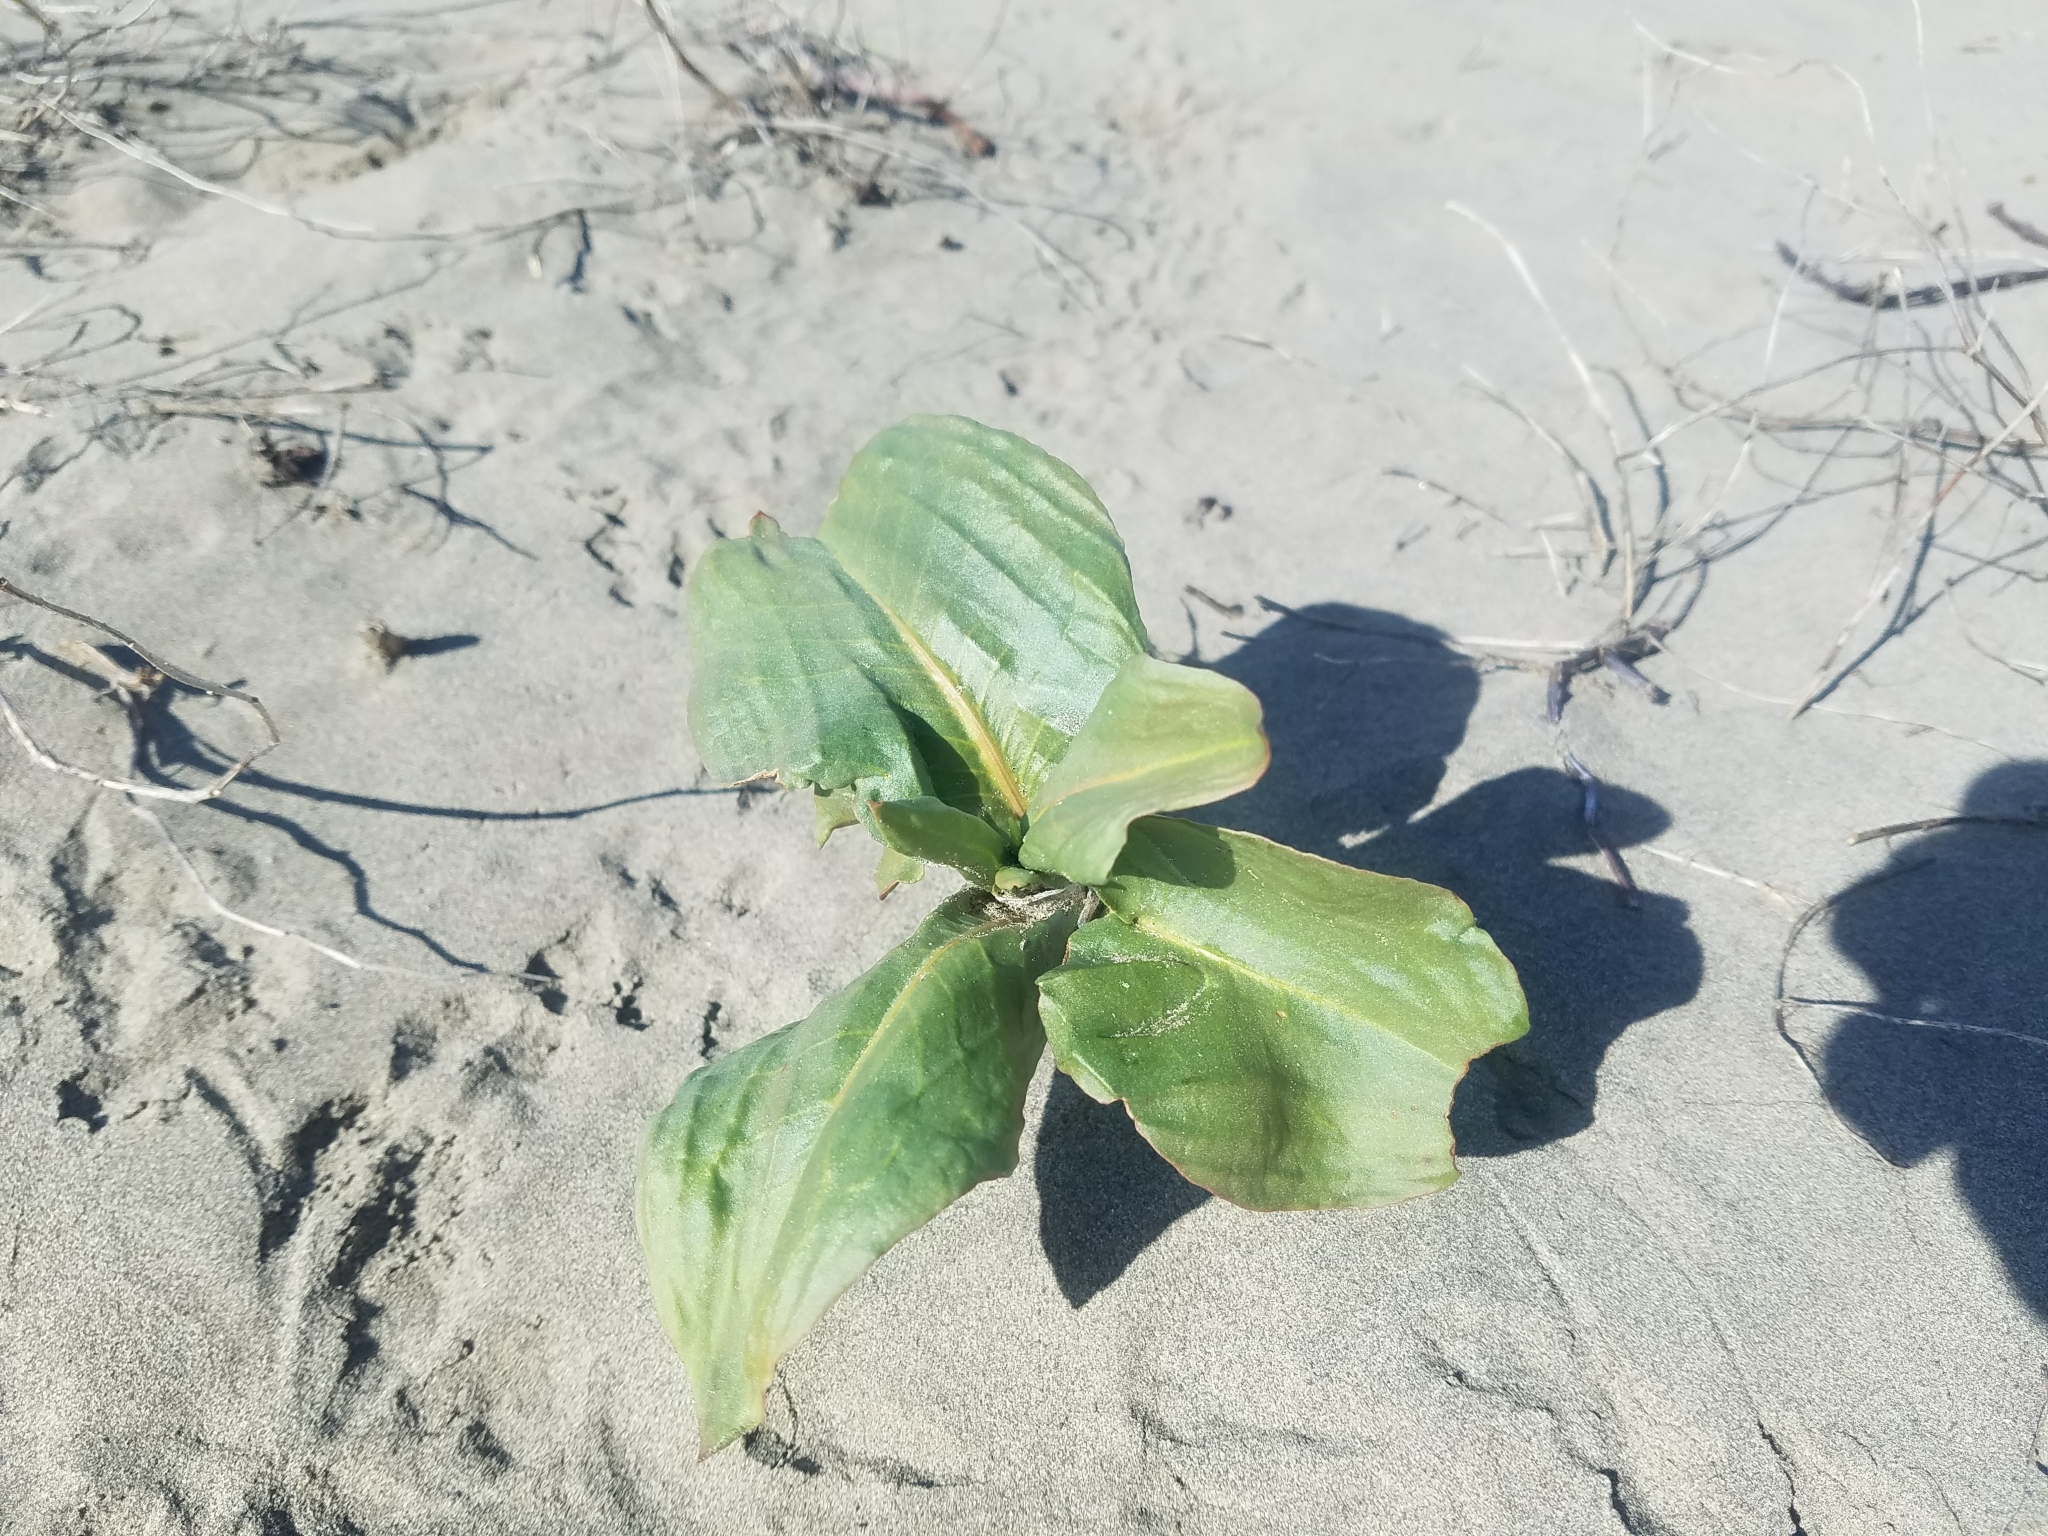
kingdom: Plantae
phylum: Tracheophyta
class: Magnoliopsida
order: Caryophyllales
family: Polygonaceae
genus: Rumex
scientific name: Rumex venosus
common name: Winged dock
